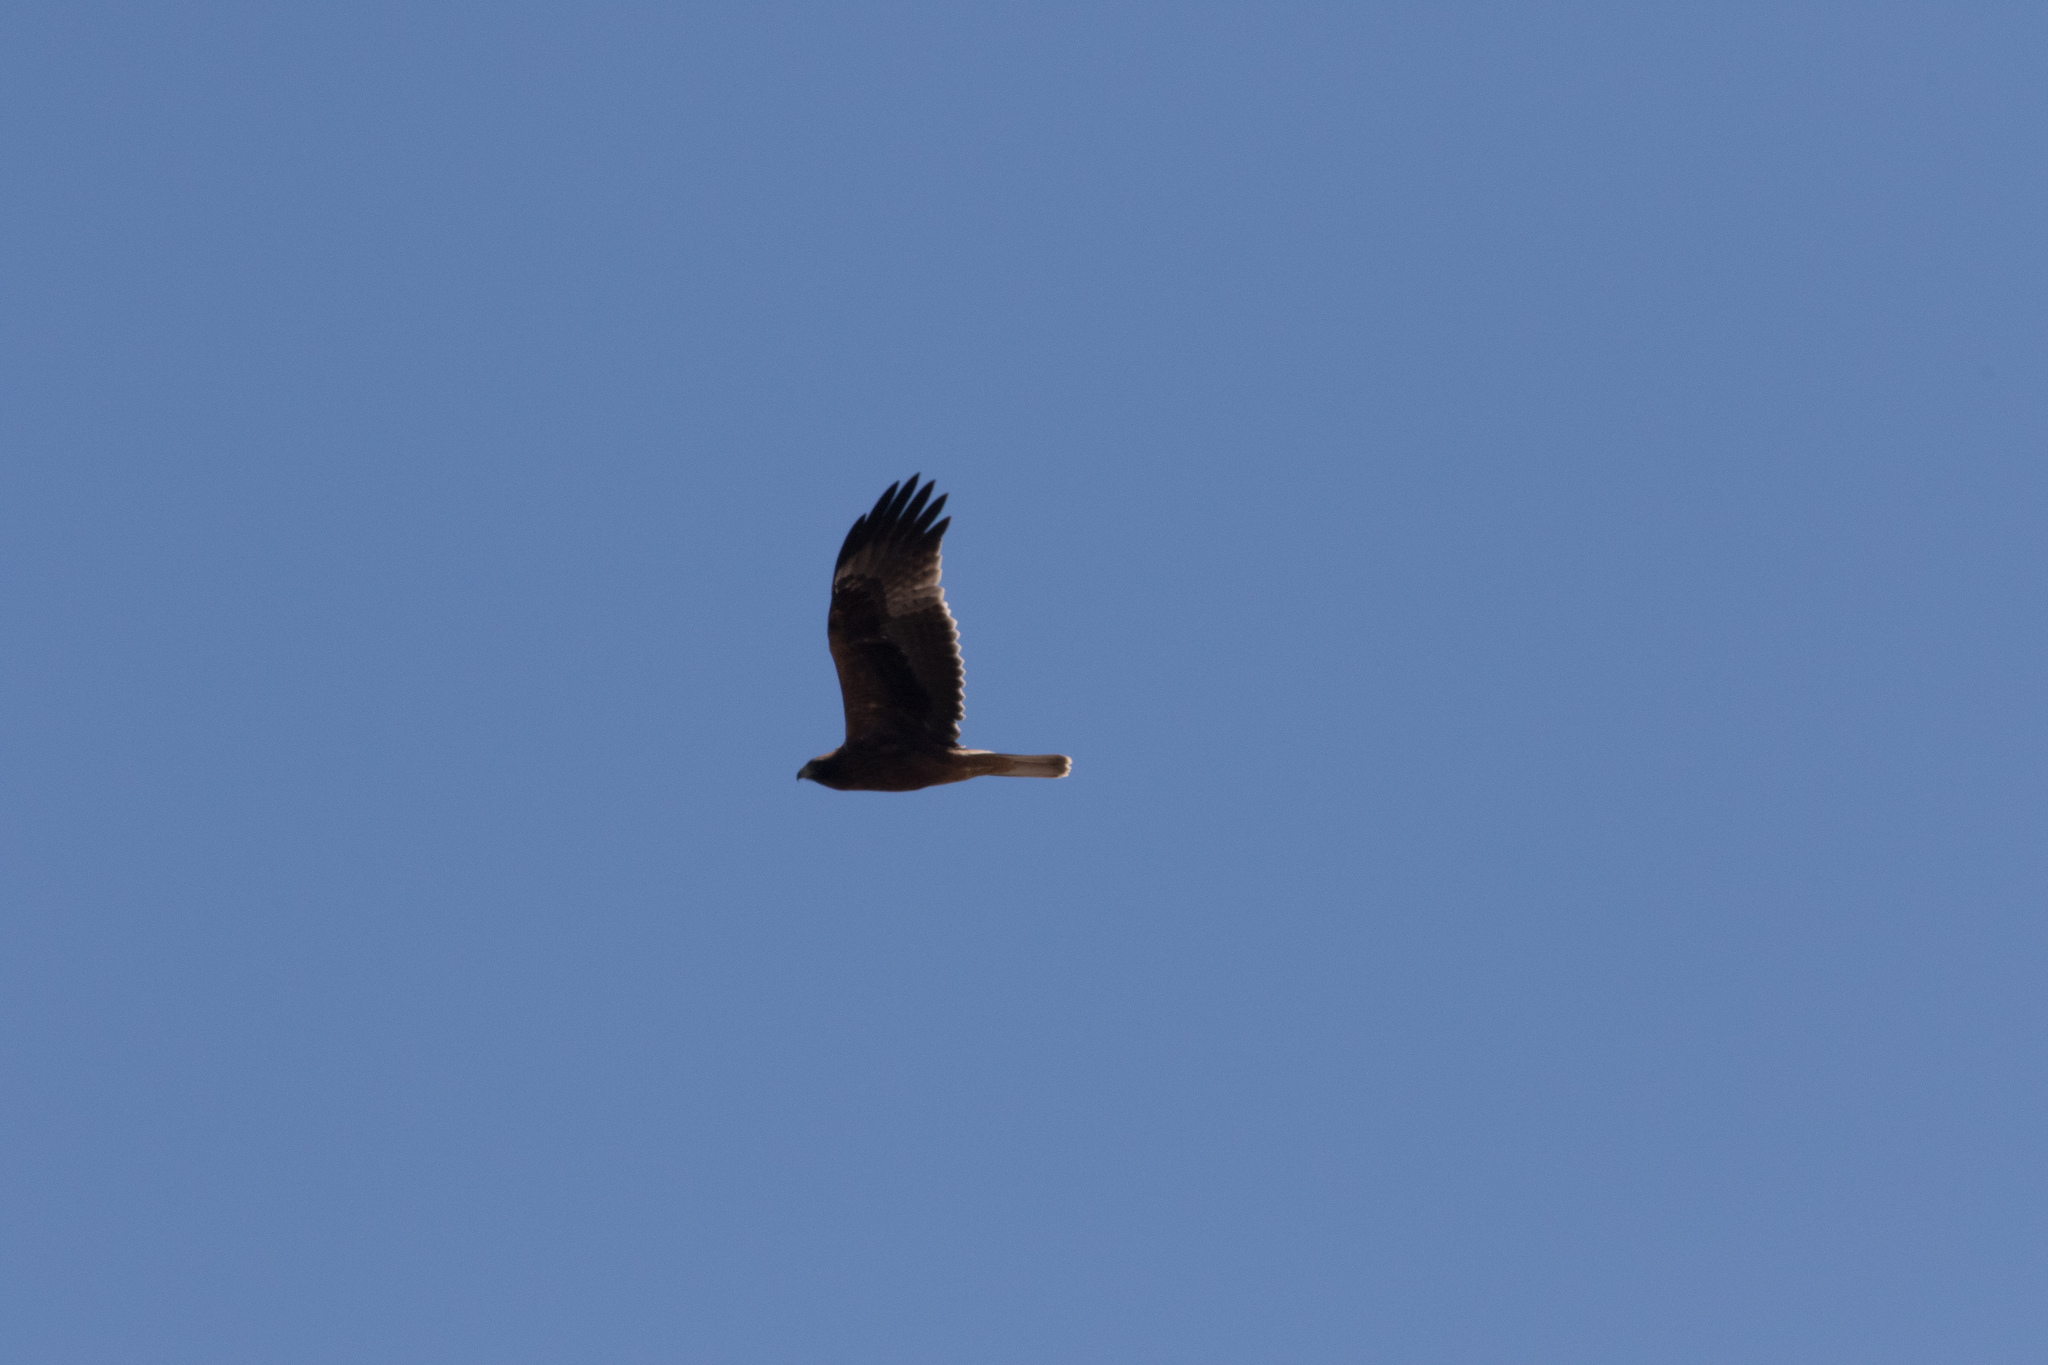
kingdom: Animalia
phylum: Chordata
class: Aves
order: Accipitriformes
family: Accipitridae
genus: Hieraaetus
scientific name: Hieraaetus pennatus
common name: Booted eagle
